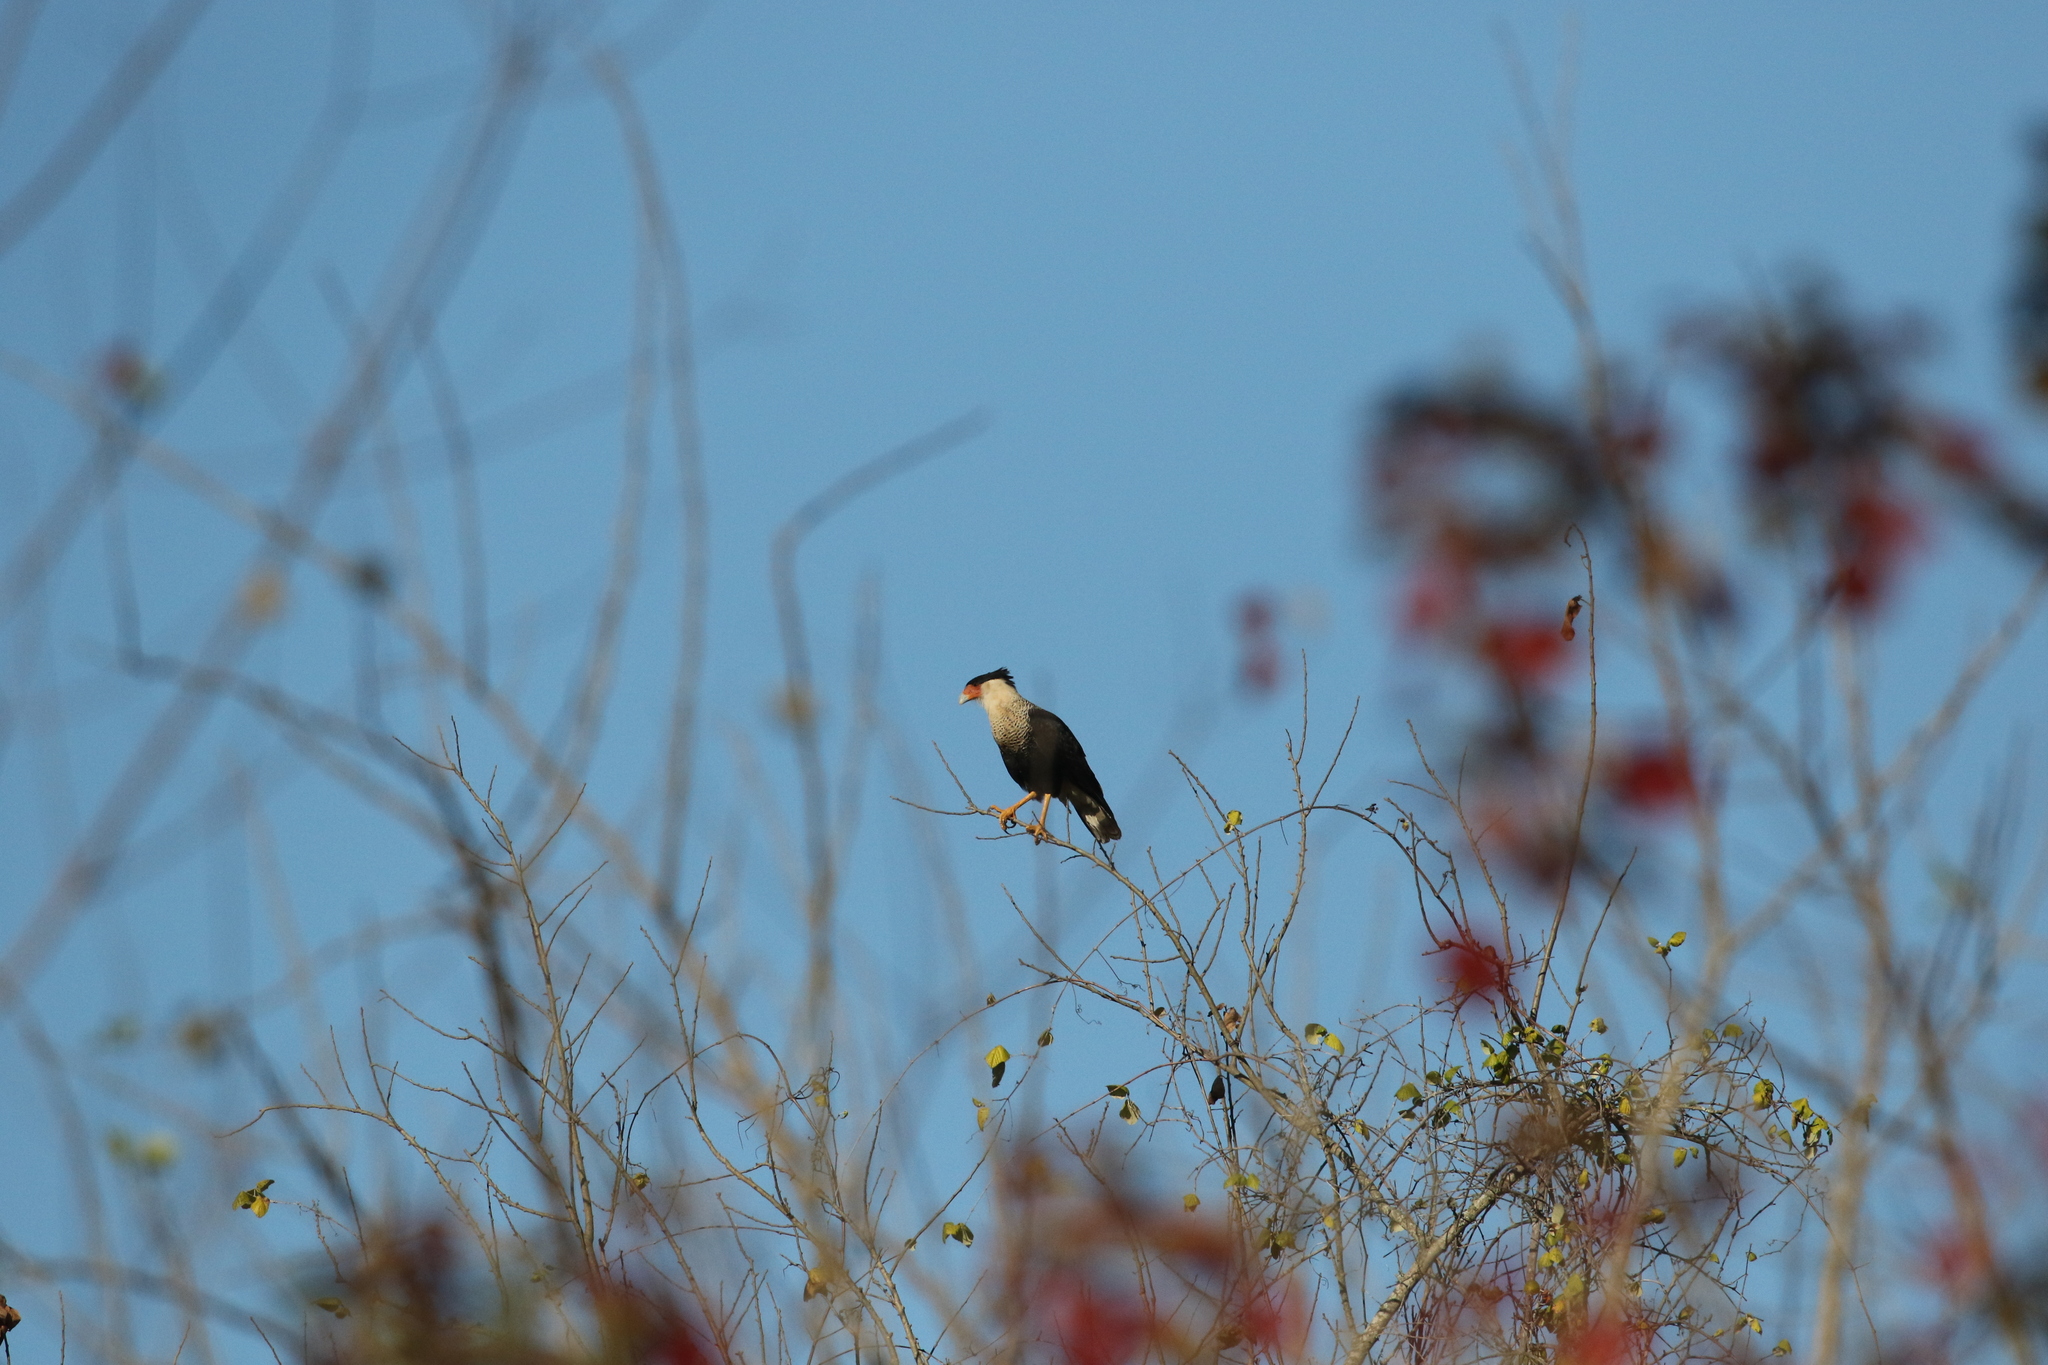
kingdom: Animalia
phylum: Chordata
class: Aves
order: Falconiformes
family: Falconidae
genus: Caracara
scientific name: Caracara plancus
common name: Southern caracara
